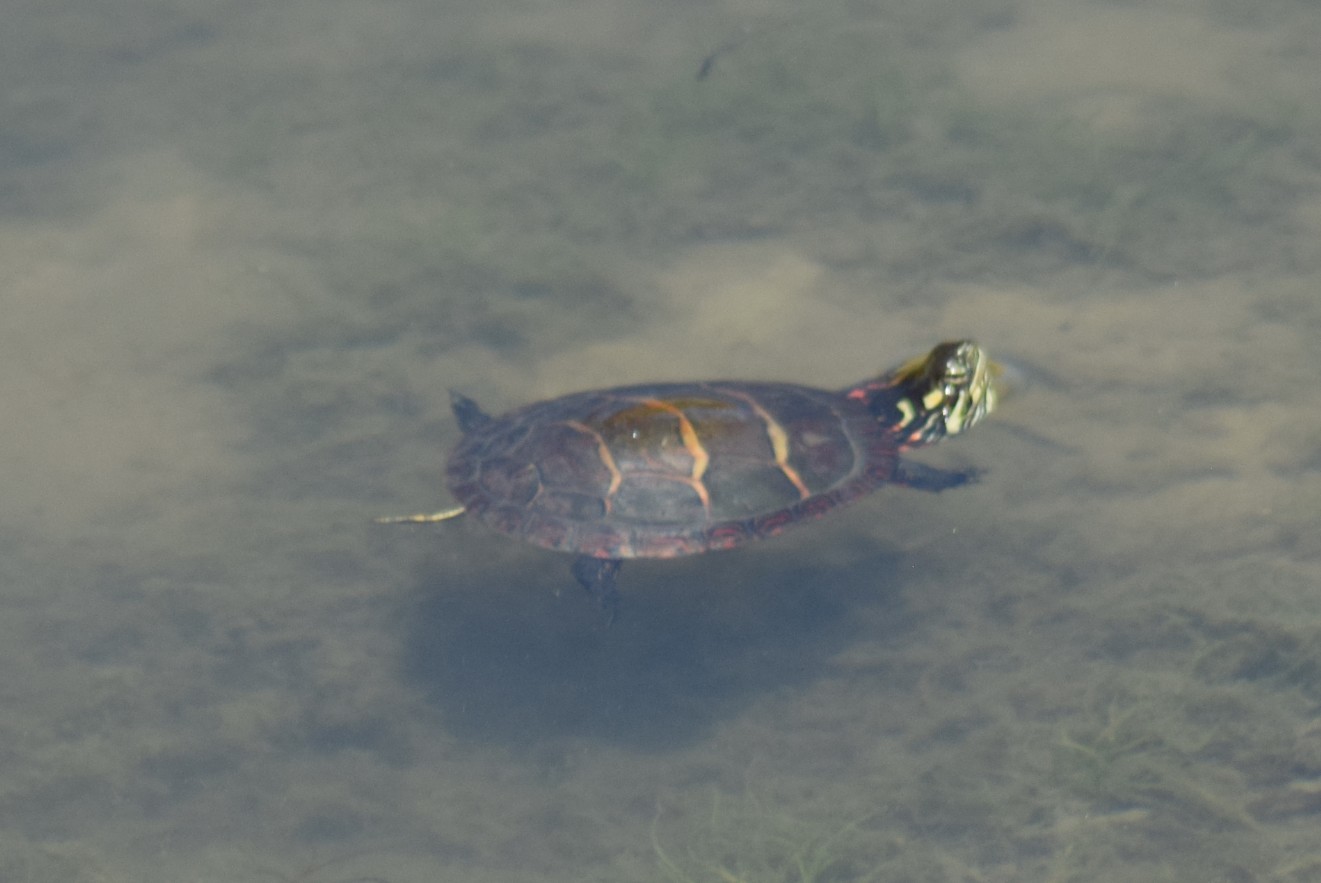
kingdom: Animalia
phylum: Chordata
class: Testudines
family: Emydidae
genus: Chrysemys
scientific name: Chrysemys picta
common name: Painted turtle
